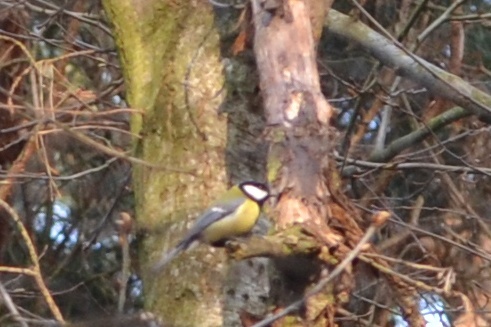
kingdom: Animalia
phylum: Chordata
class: Aves
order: Passeriformes
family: Paridae
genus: Parus
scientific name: Parus major
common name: Great tit
